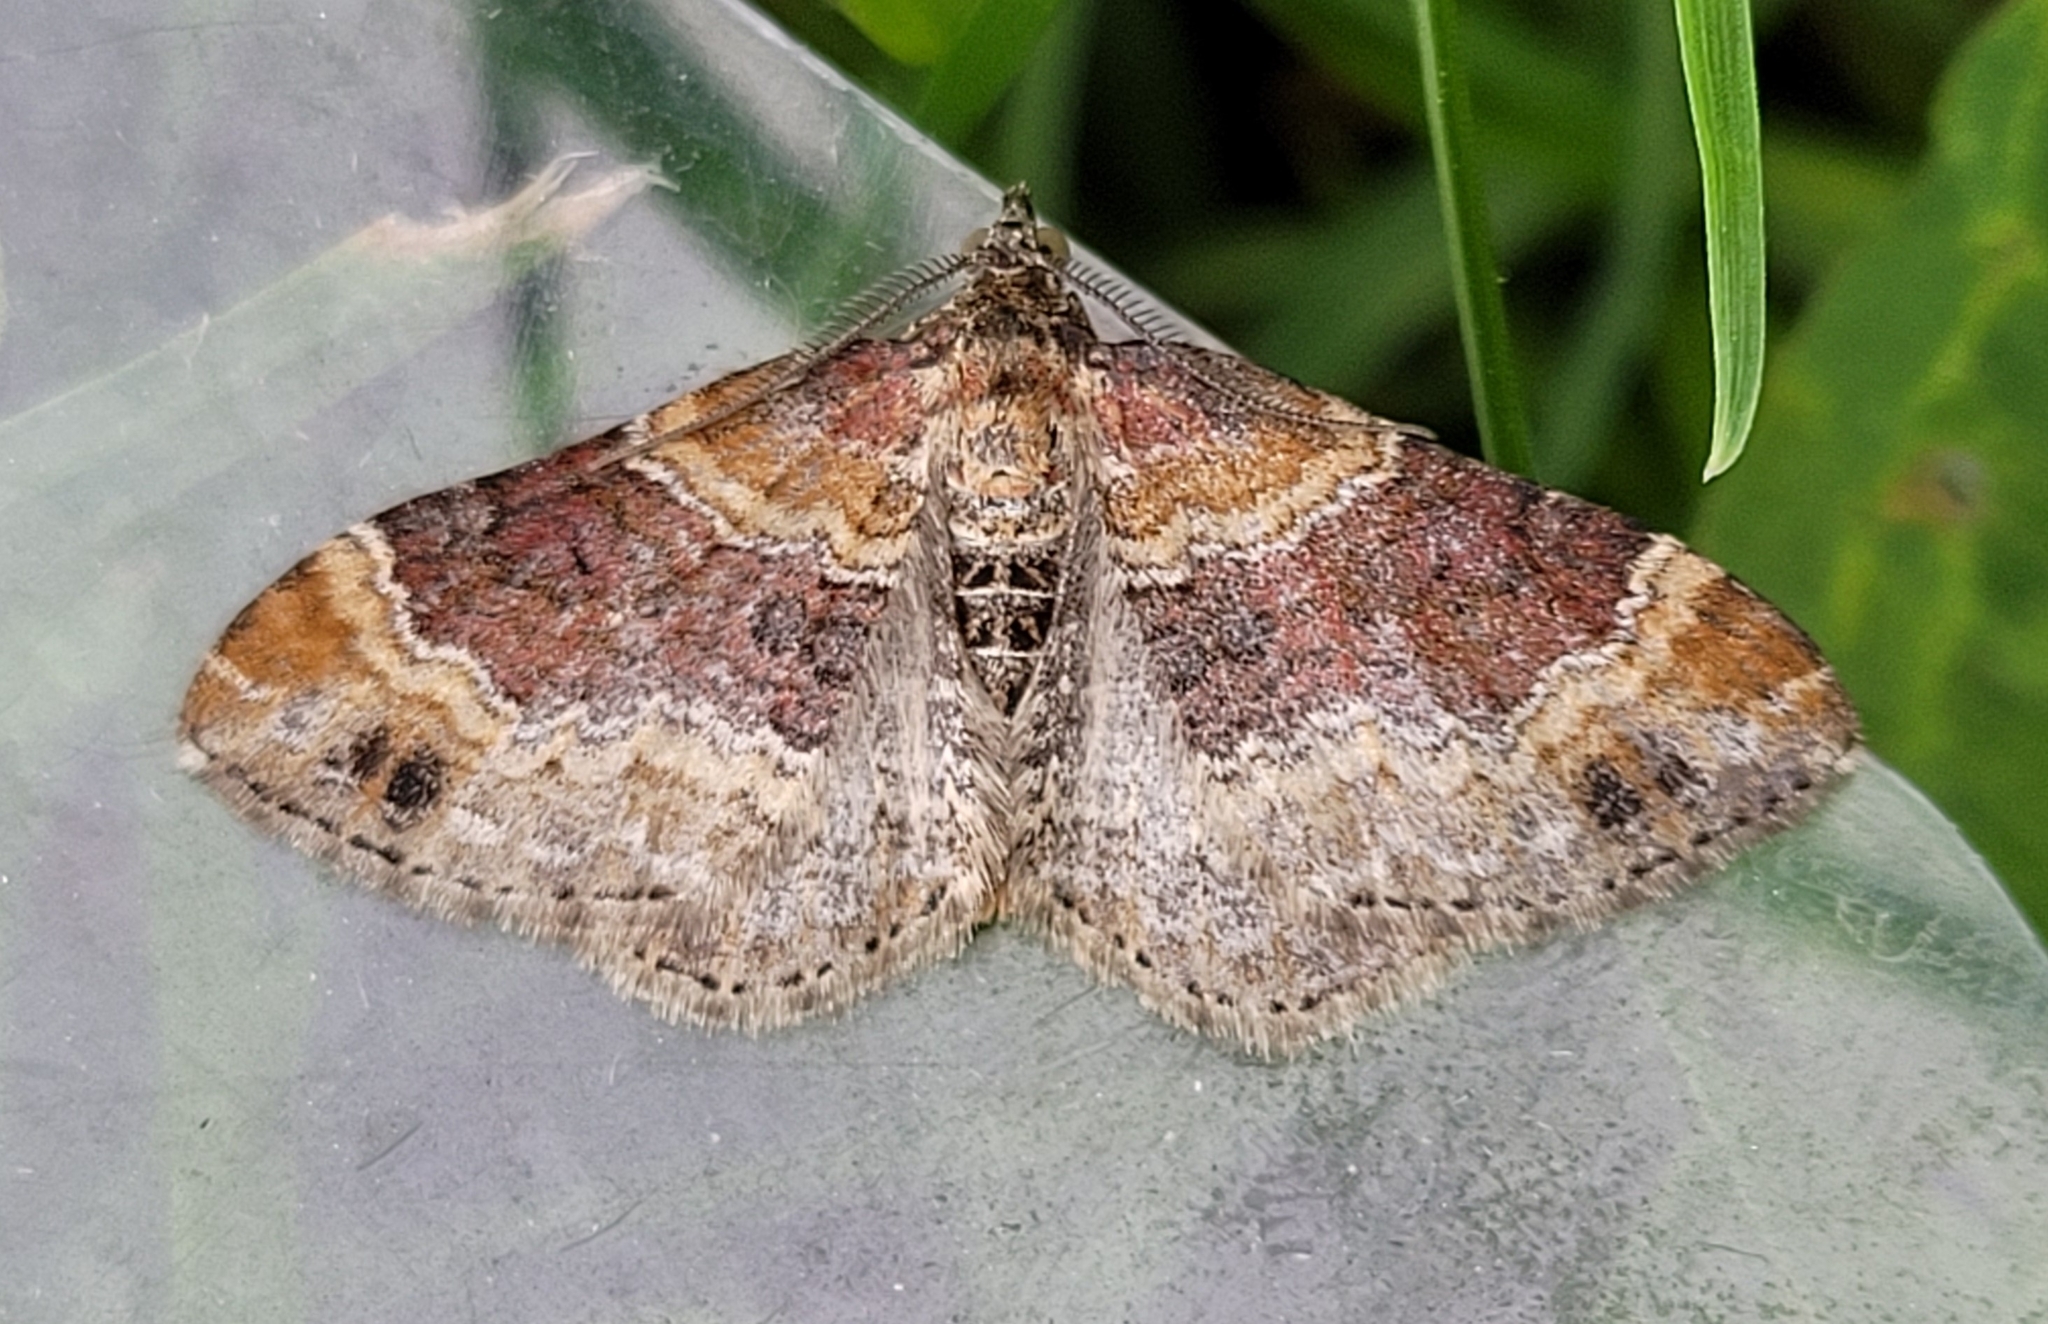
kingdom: Animalia
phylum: Arthropoda
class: Insecta
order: Lepidoptera
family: Geometridae
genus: Xanthorhoe
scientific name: Xanthorhoe spadicearia
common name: Red twin-spot carpet
